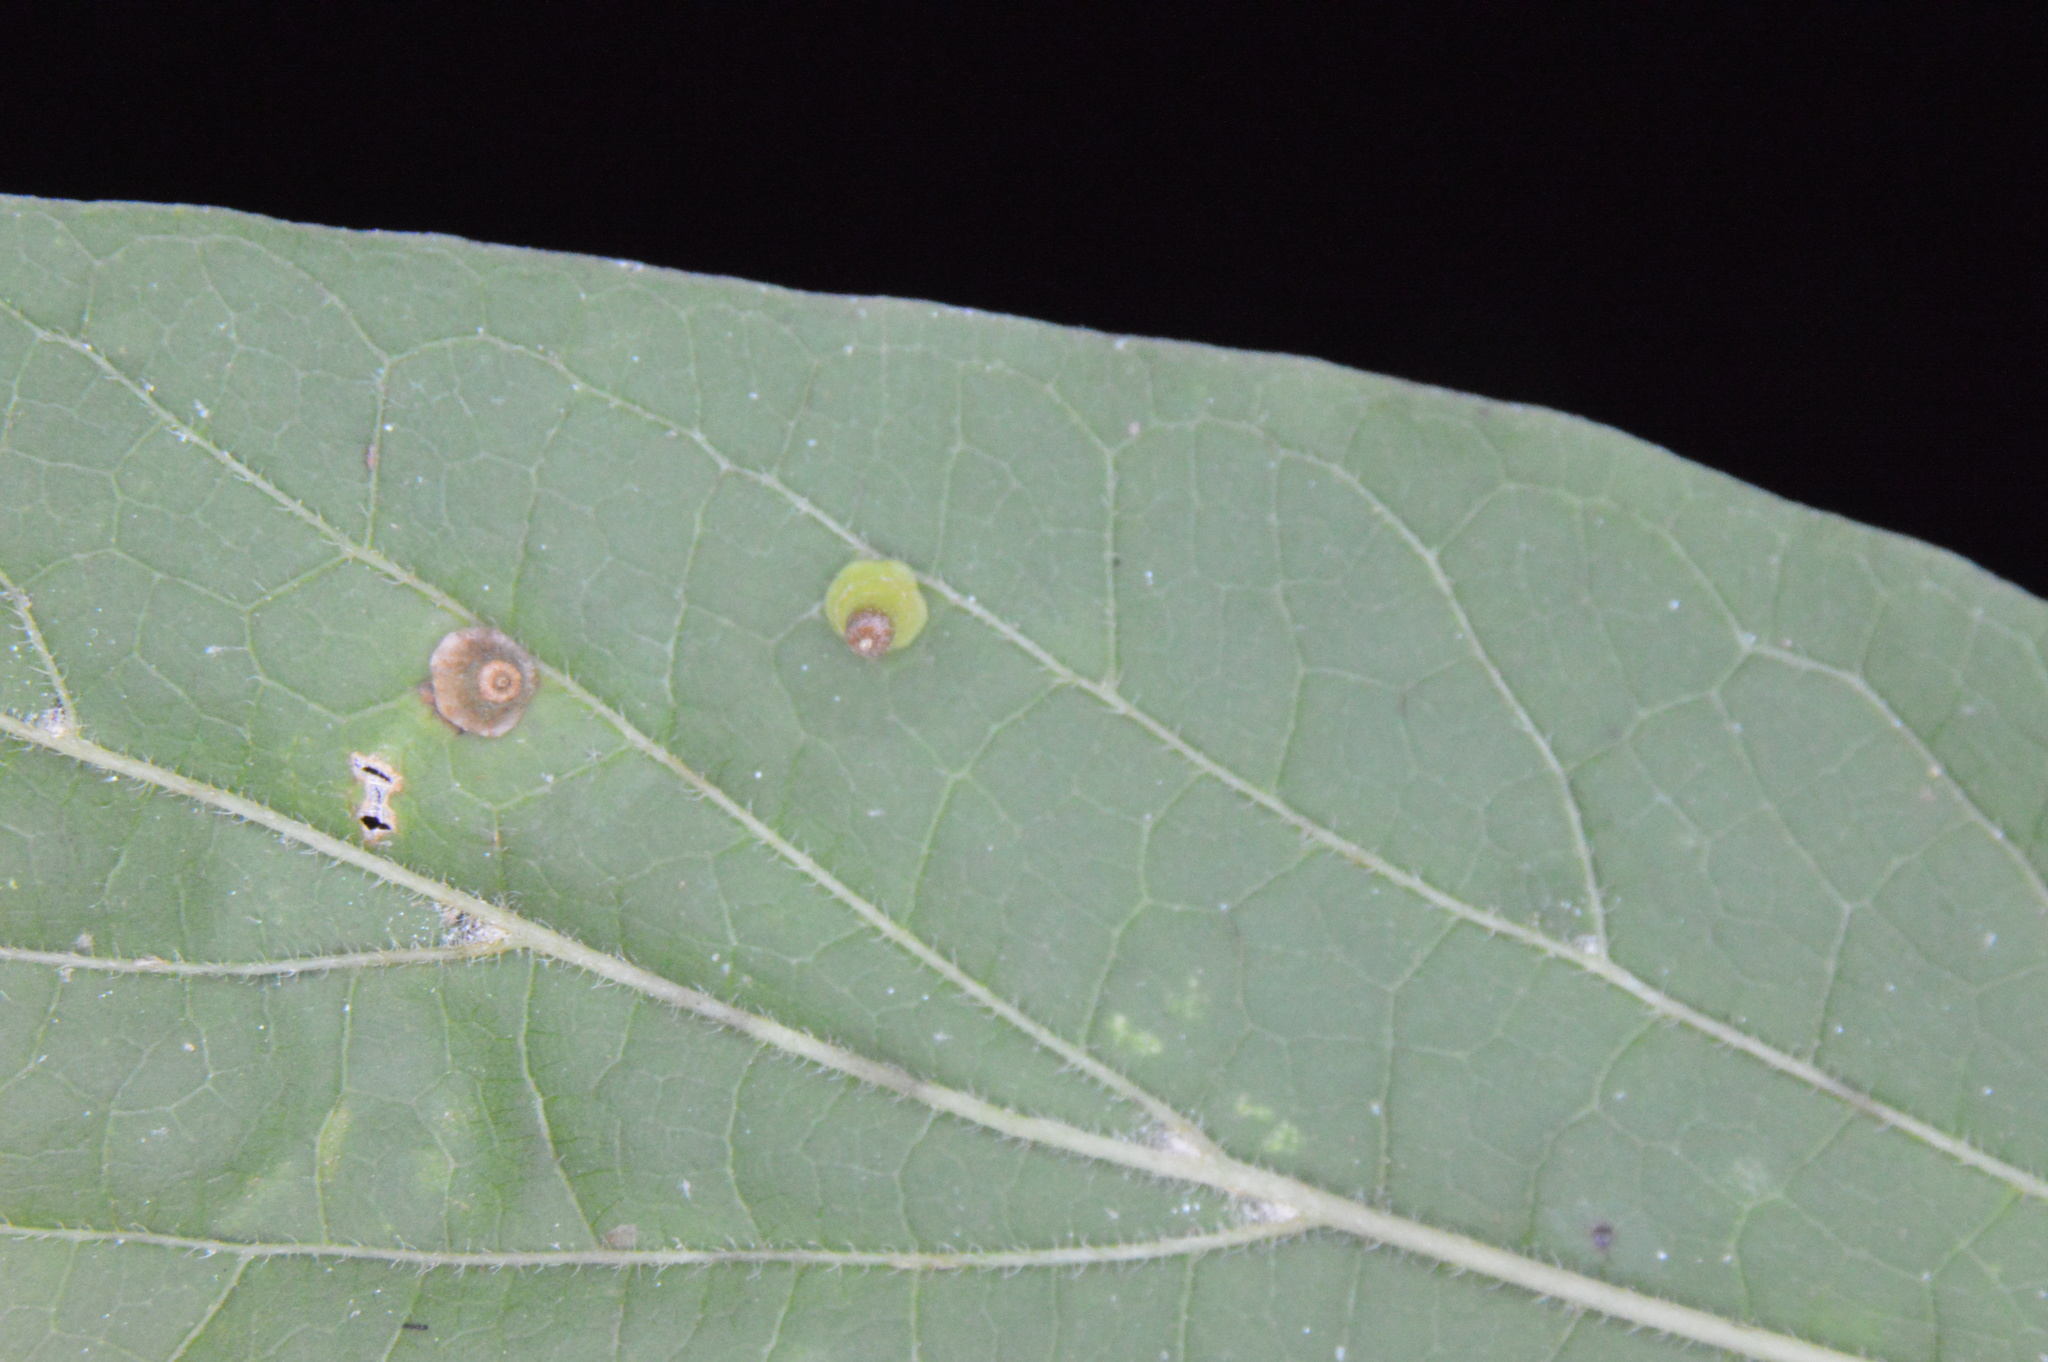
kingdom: Animalia
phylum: Arthropoda
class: Insecta
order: Diptera
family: Cecidomyiidae
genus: Celticecis
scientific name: Celticecis aciculata
